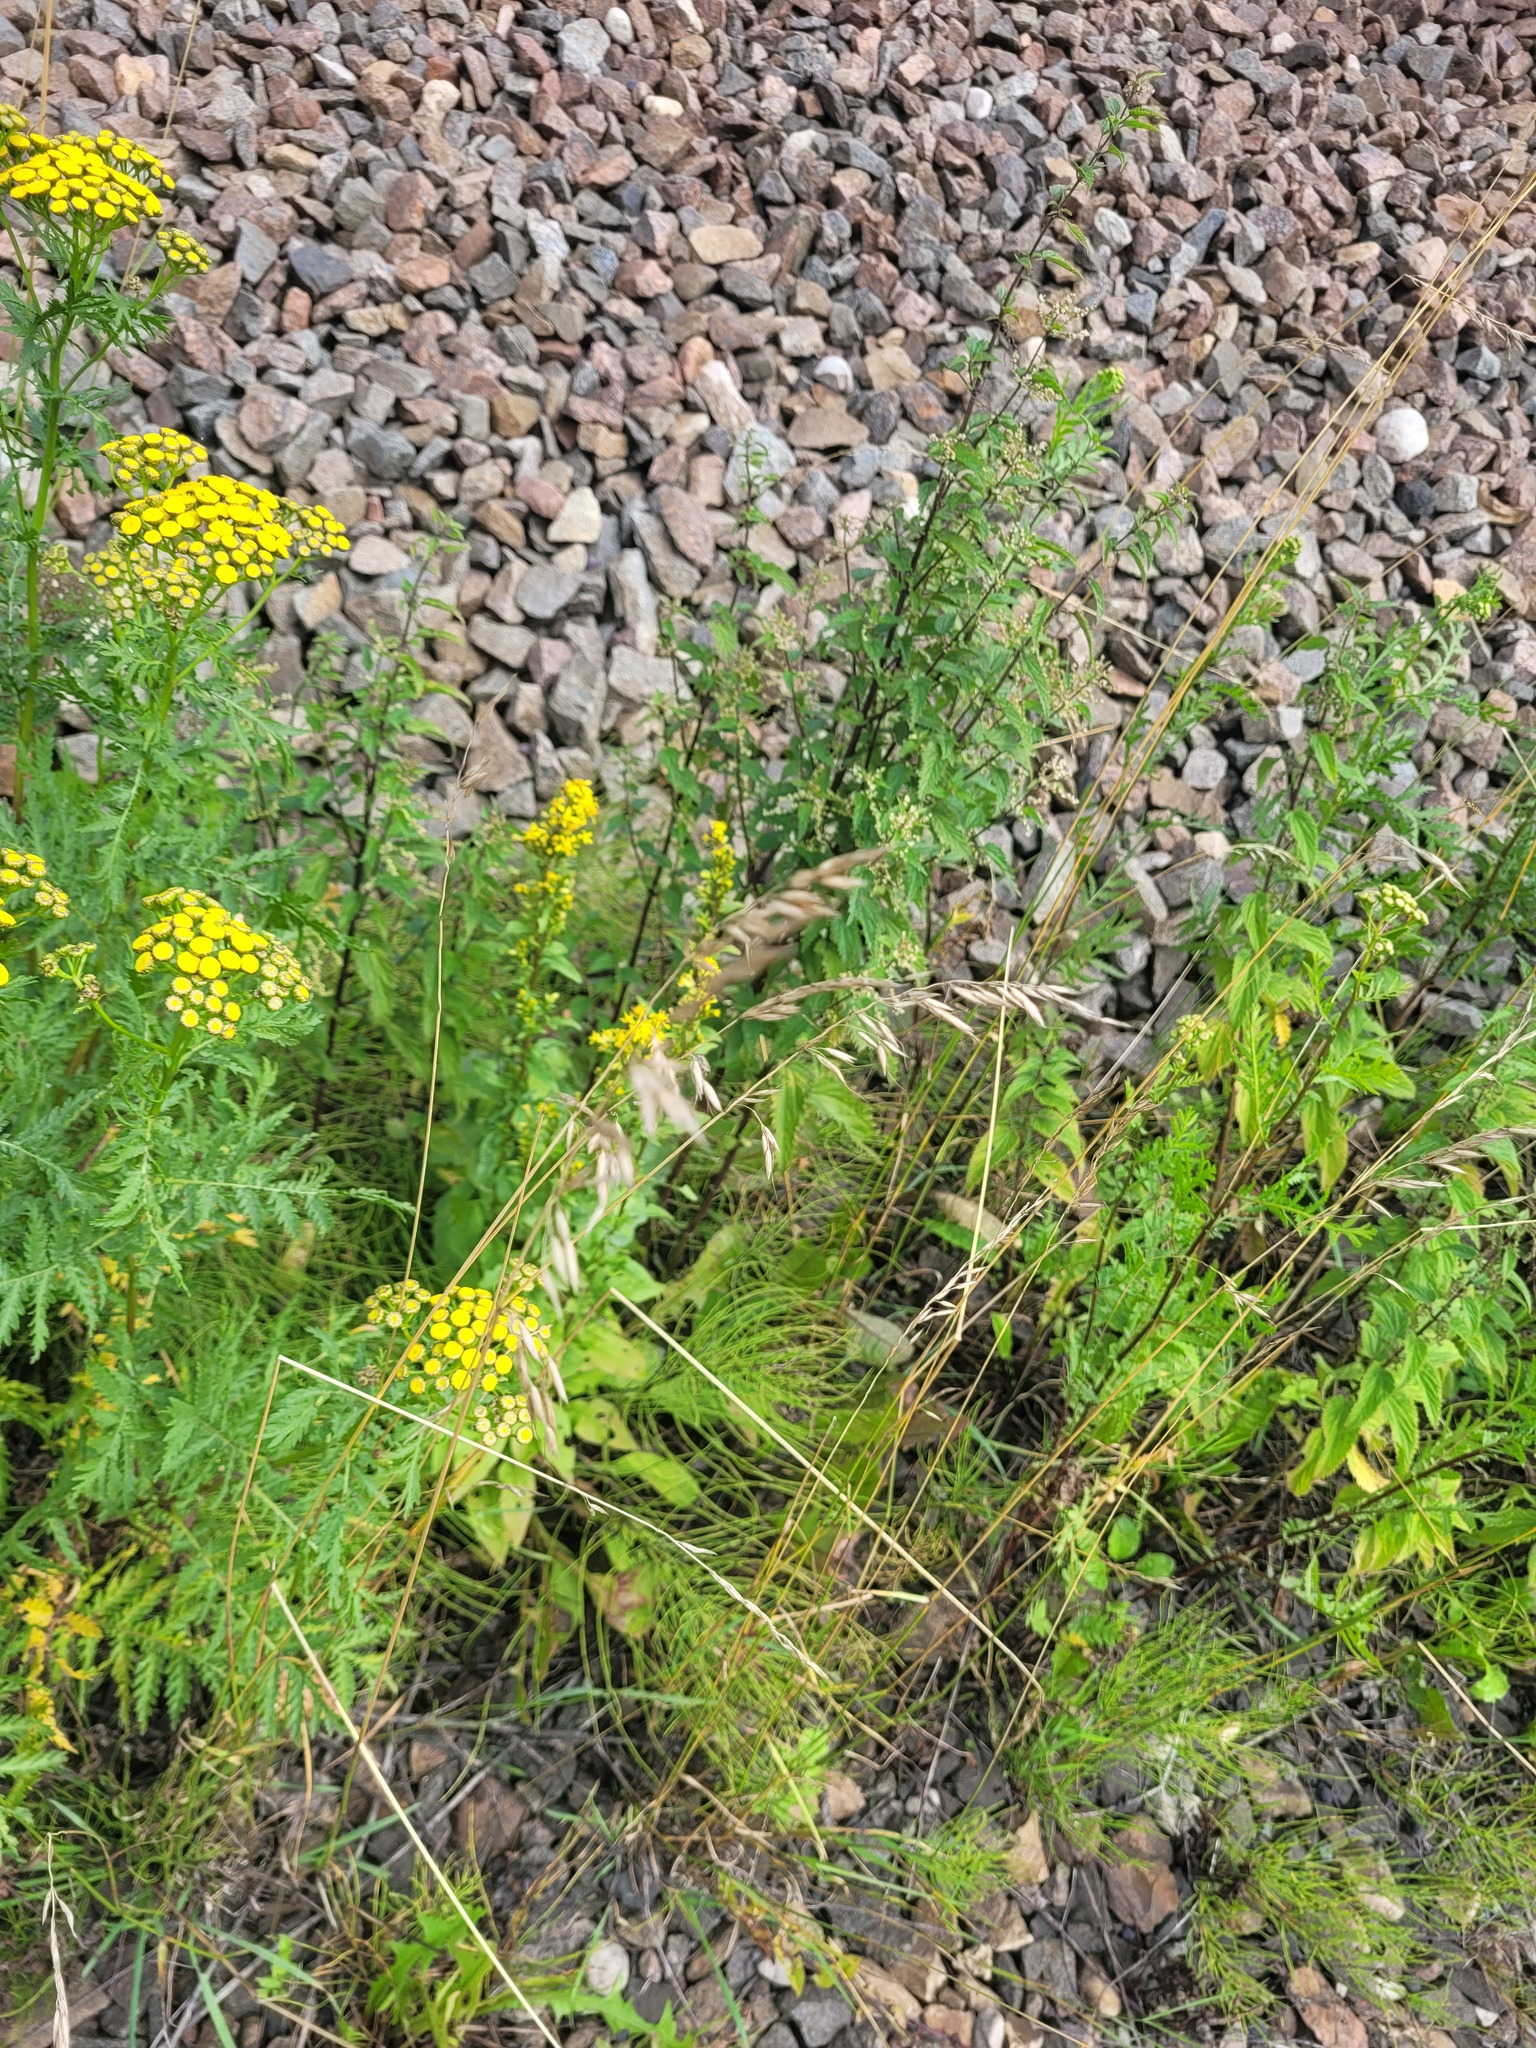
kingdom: Plantae
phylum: Tracheophyta
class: Liliopsida
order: Poales
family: Poaceae
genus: Arrhenatherum
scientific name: Arrhenatherum elatius
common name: Tall oatgrass
